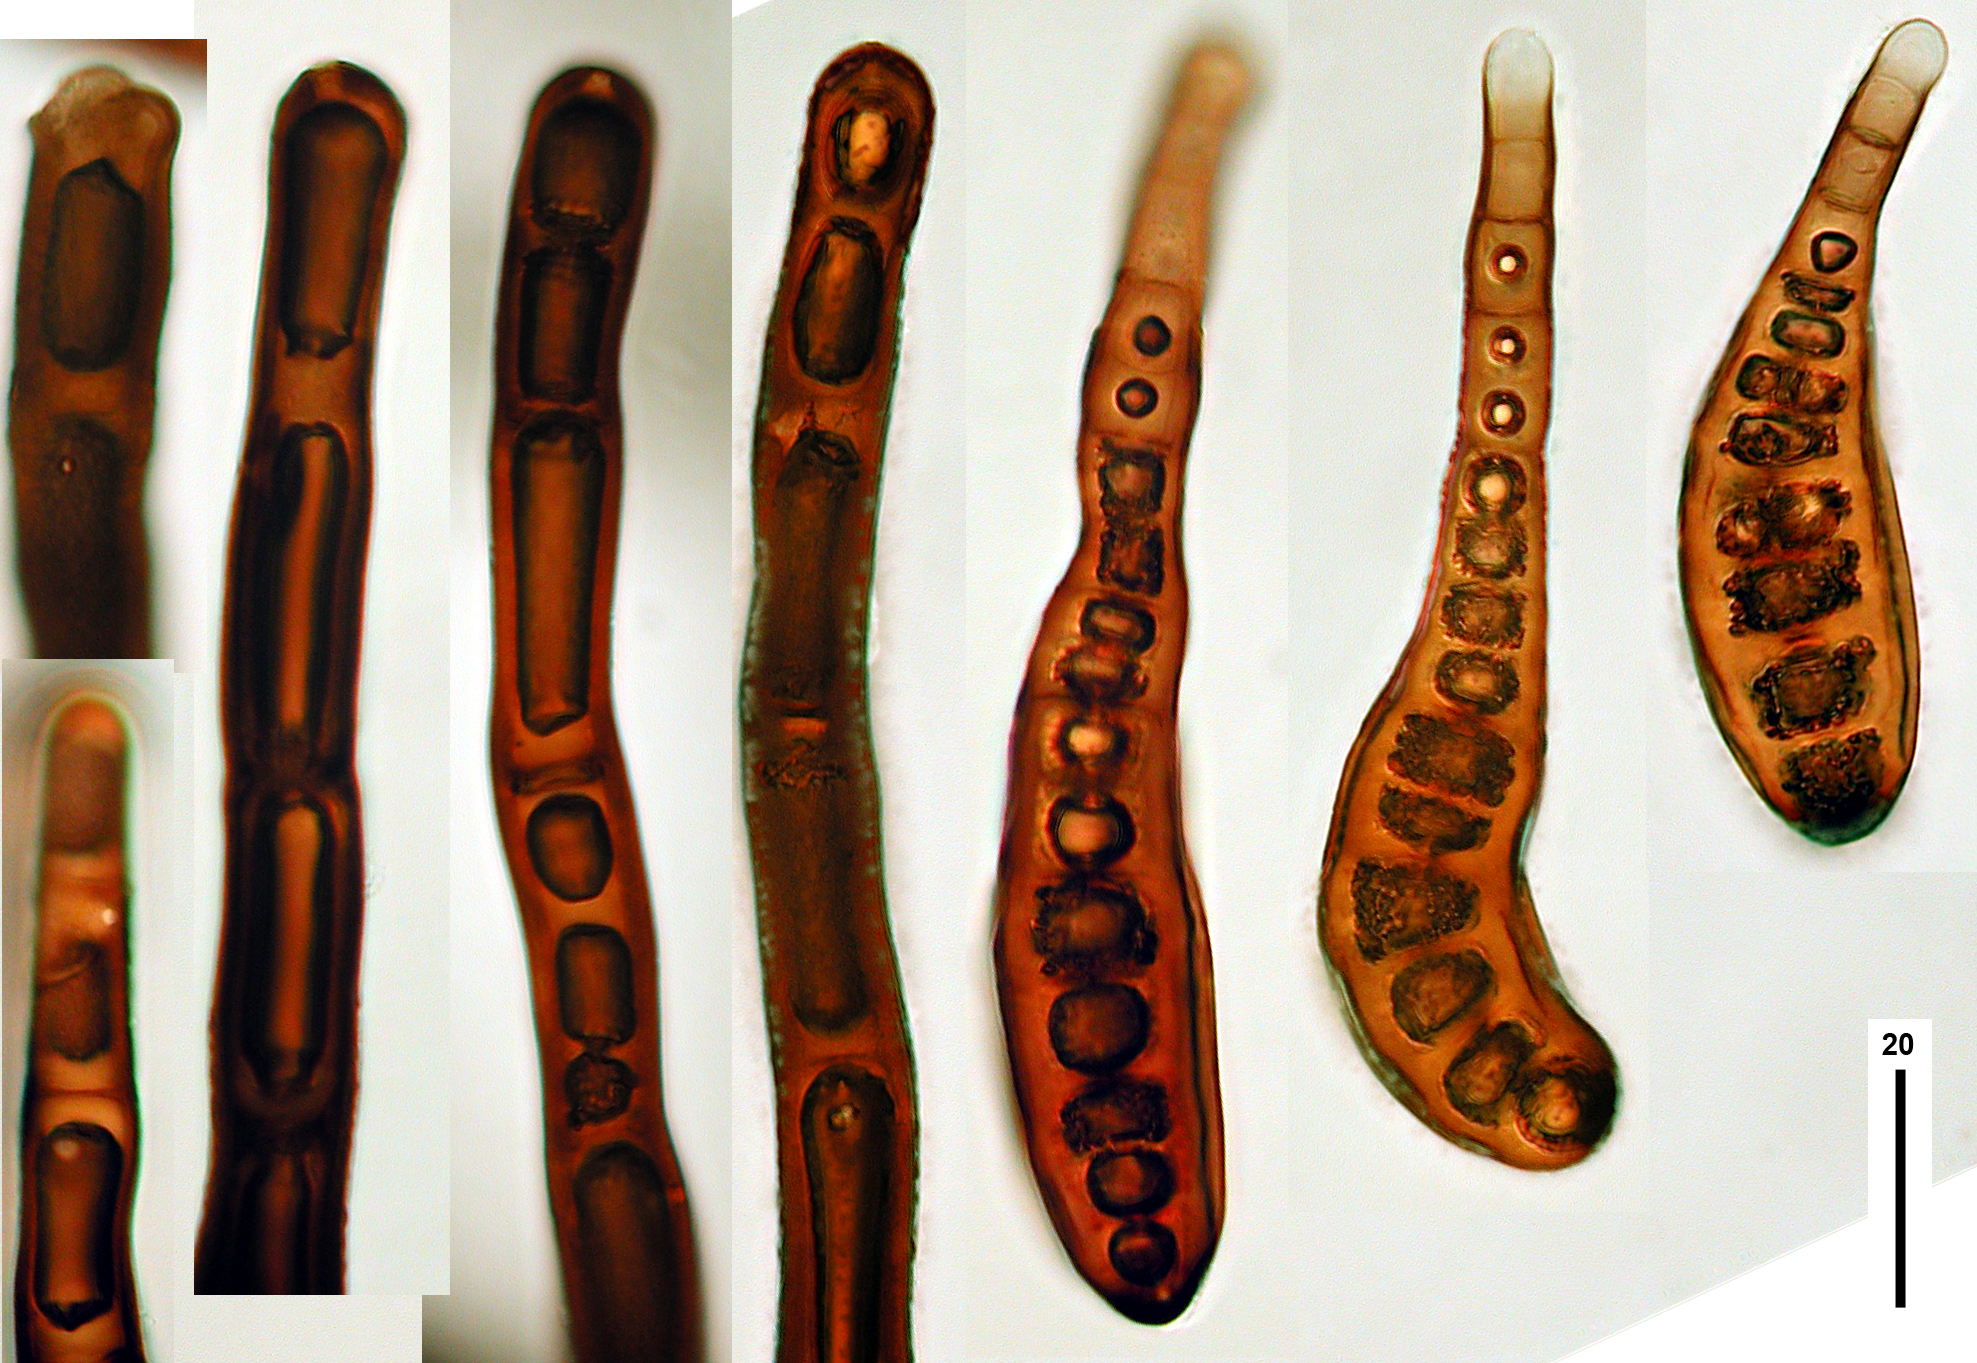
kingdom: Fungi
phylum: Ascomycota
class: Dothideomycetes
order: Pleosporales
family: Massarinaceae
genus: Helminthosporium
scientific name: Helminthosporium velutinum
